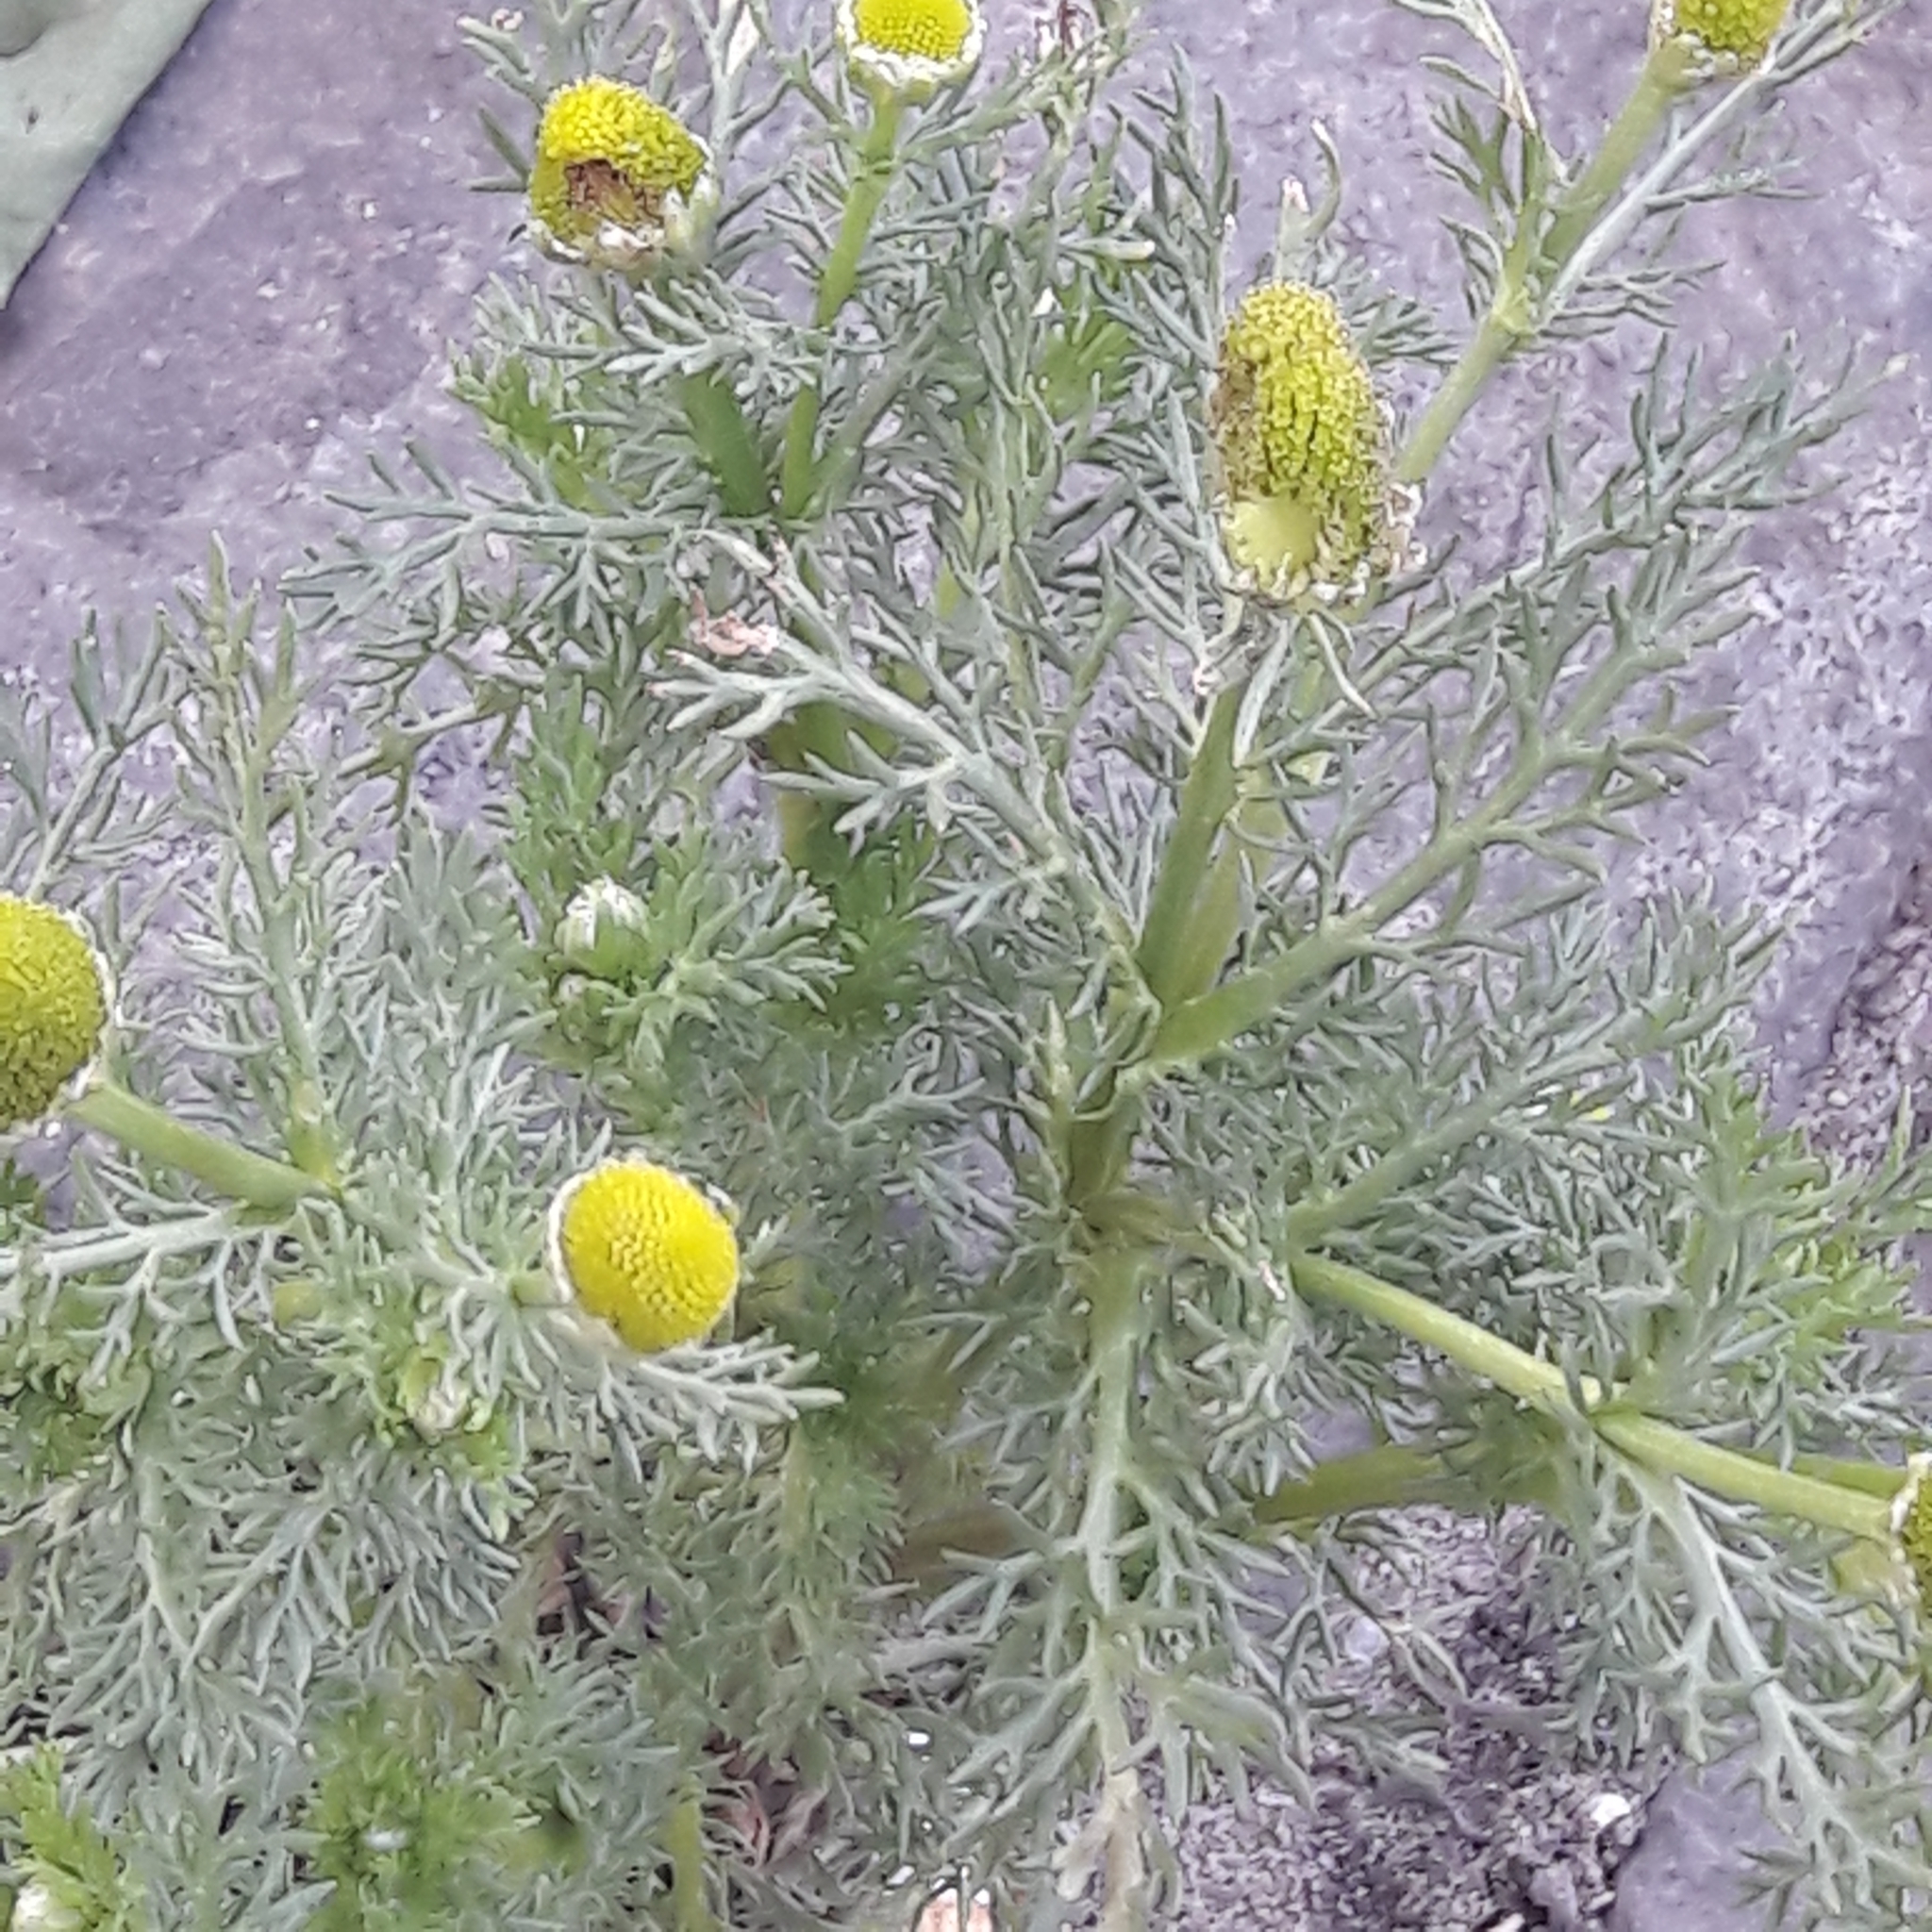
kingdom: Plantae
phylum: Tracheophyta
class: Magnoliopsida
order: Asterales
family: Asteraceae
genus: Matricaria
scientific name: Matricaria discoidea
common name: Disc mayweed
